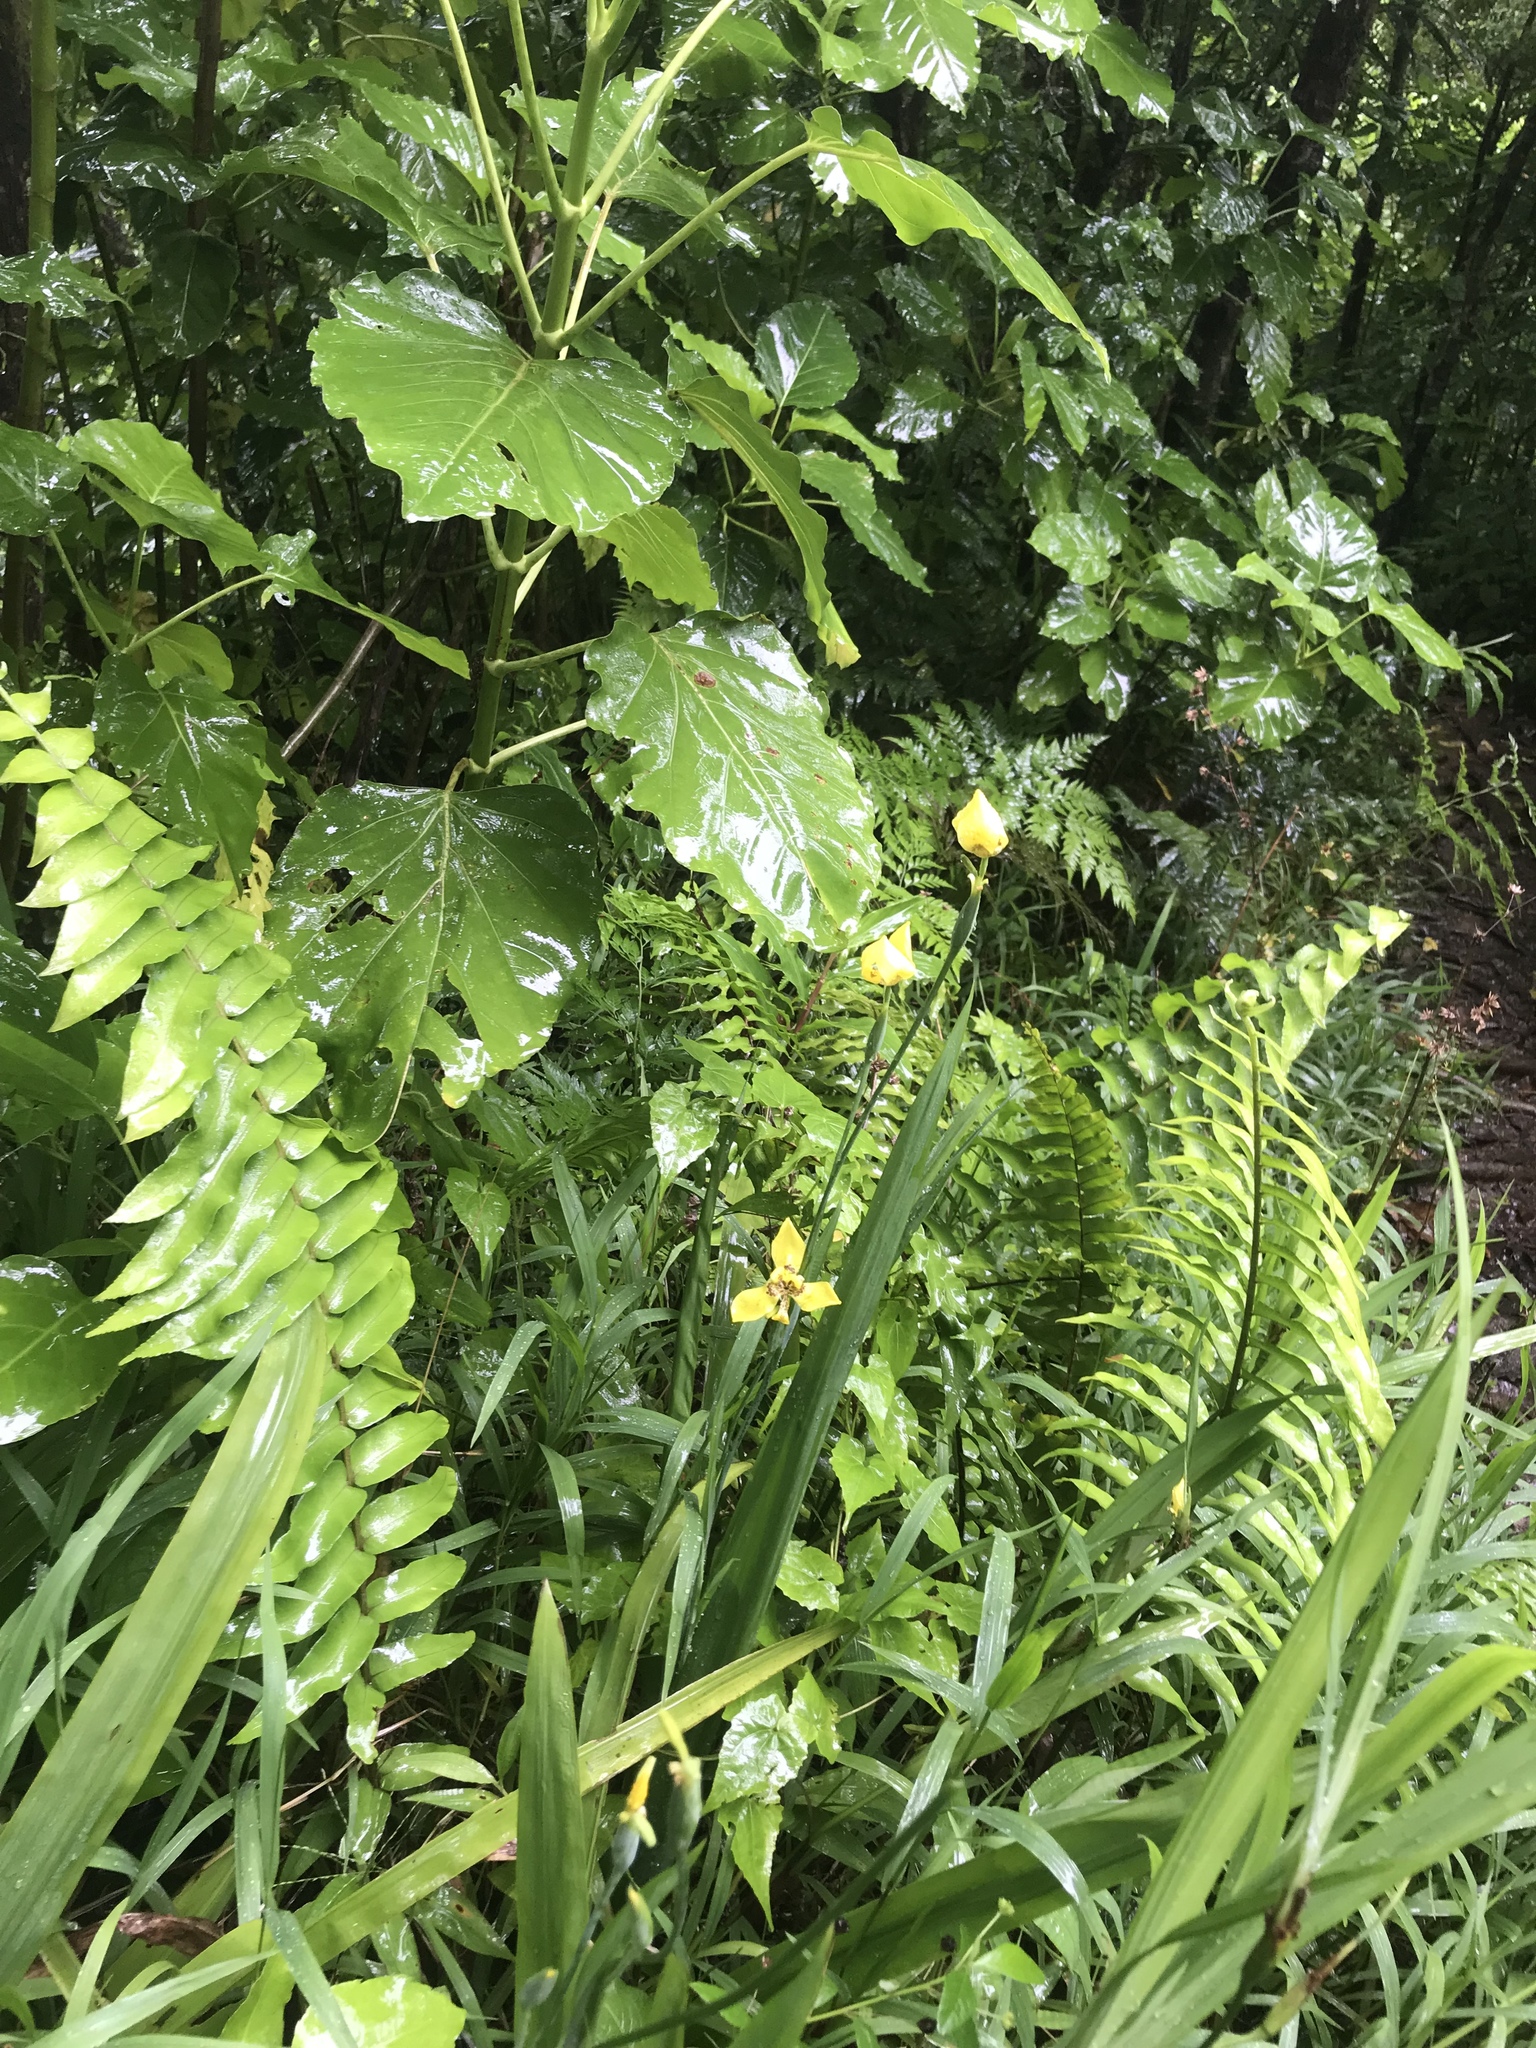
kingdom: Plantae
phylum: Tracheophyta
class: Liliopsida
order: Asparagales
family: Iridaceae
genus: Trimezia
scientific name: Trimezia steyermarkii
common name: Trimezia
